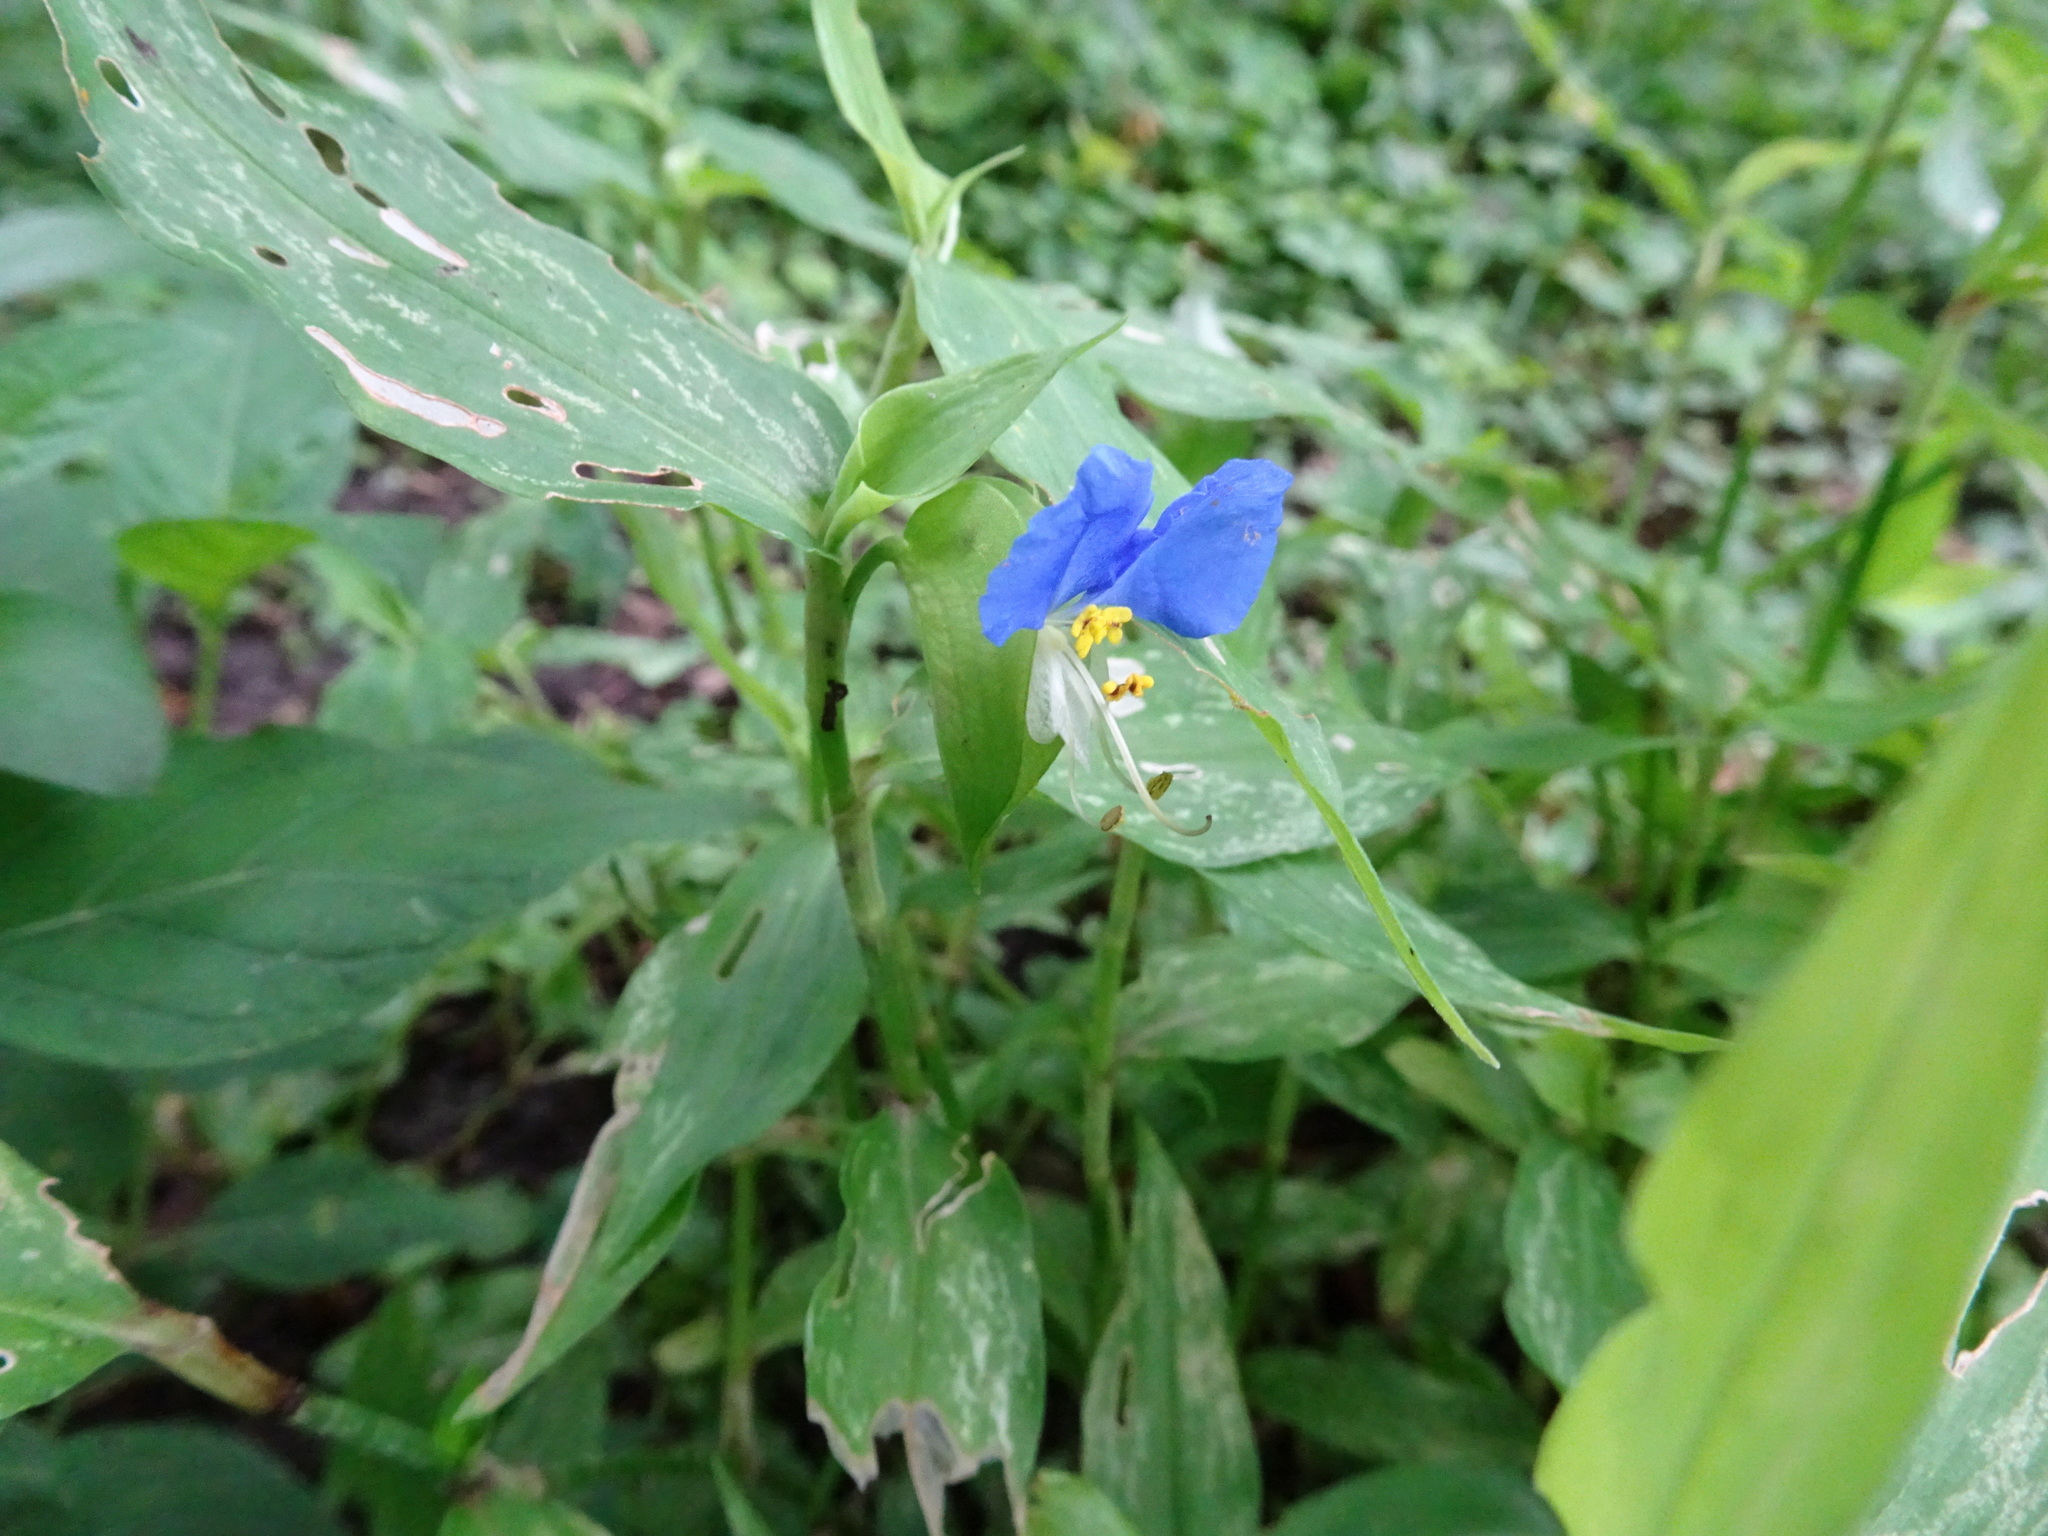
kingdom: Plantae
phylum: Tracheophyta
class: Liliopsida
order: Commelinales
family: Commelinaceae
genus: Commelina
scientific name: Commelina communis
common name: Asiatic dayflower
